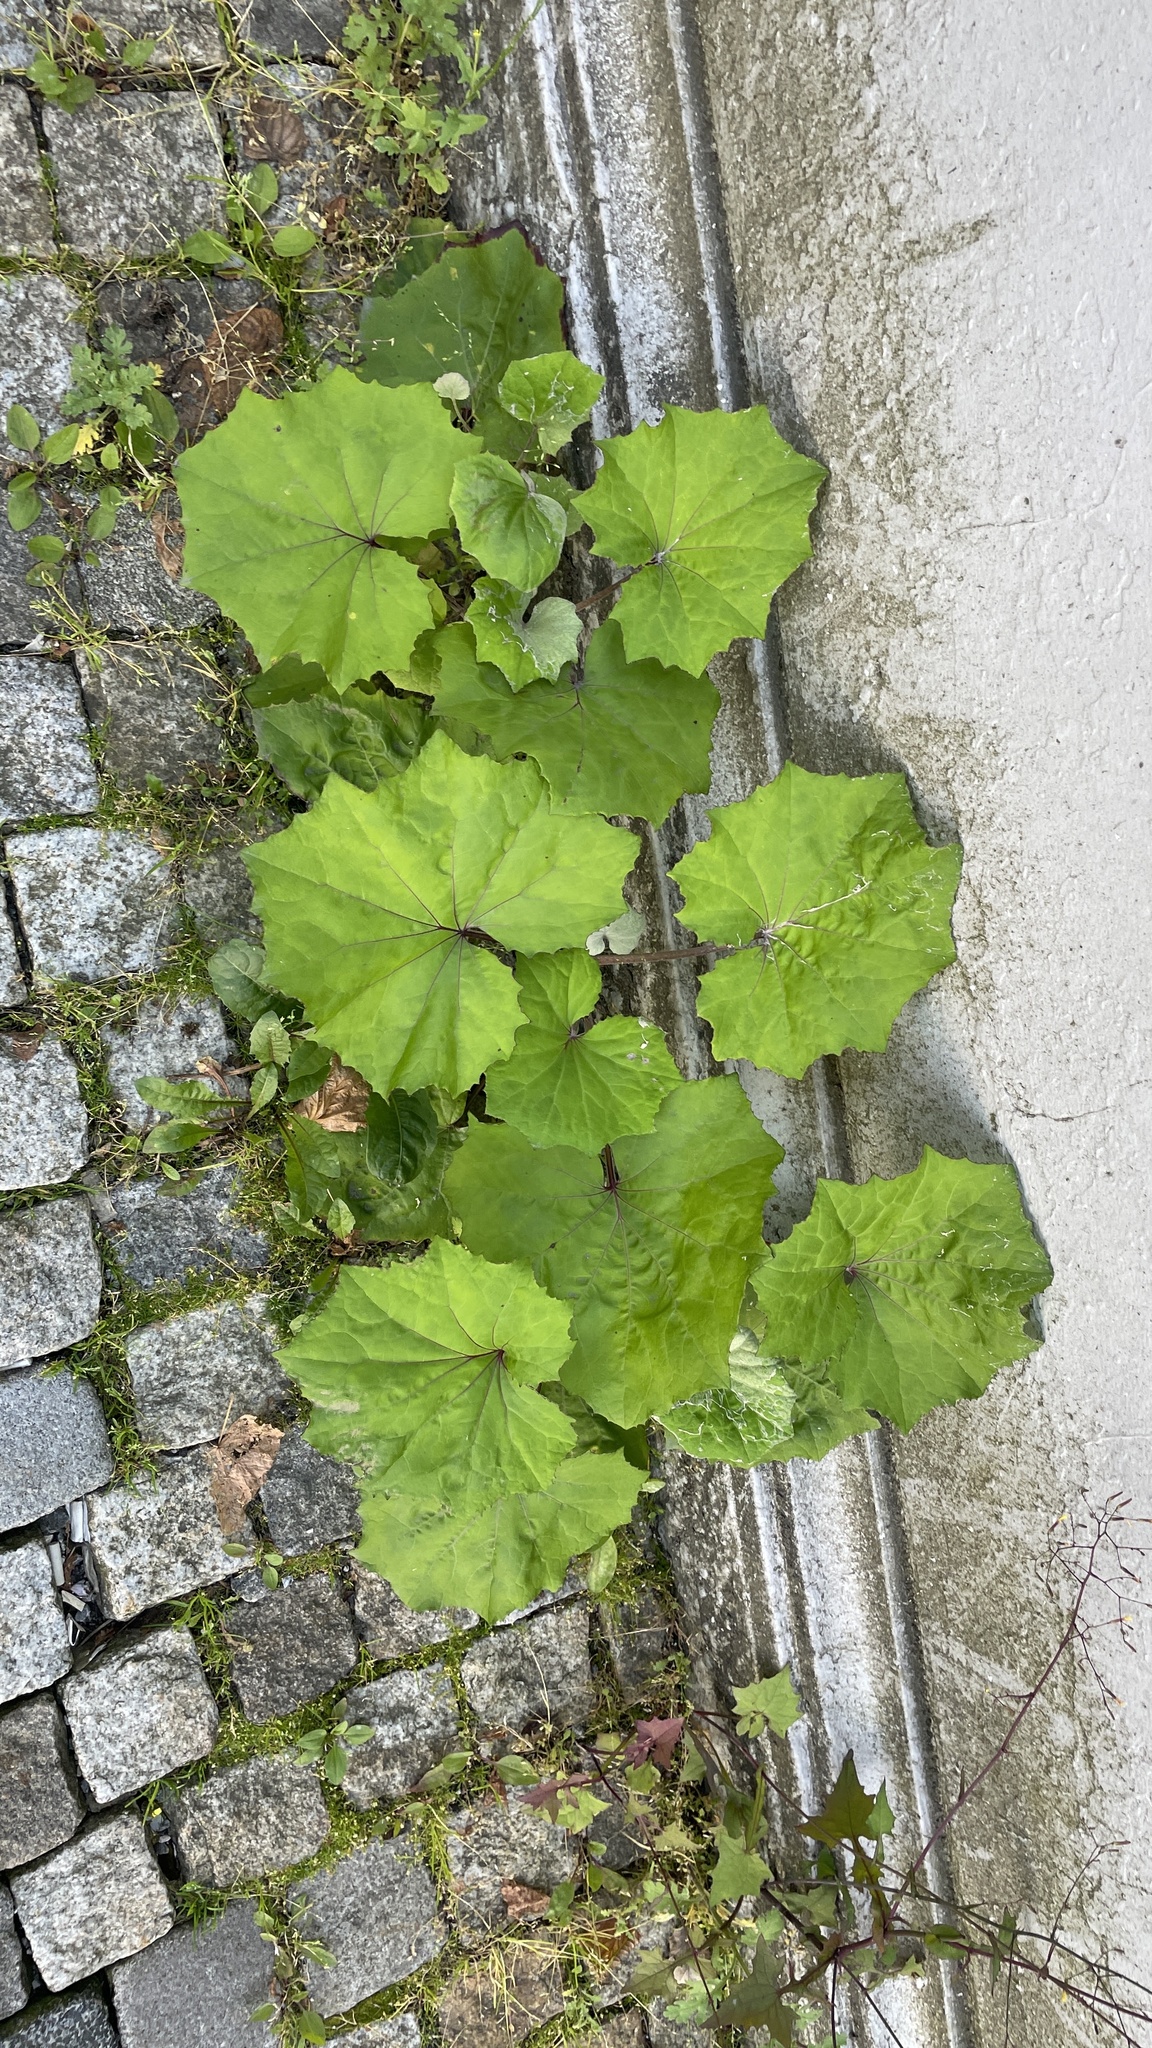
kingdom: Plantae
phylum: Tracheophyta
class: Magnoliopsida
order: Asterales
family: Asteraceae
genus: Tussilago
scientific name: Tussilago farfara
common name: Coltsfoot
